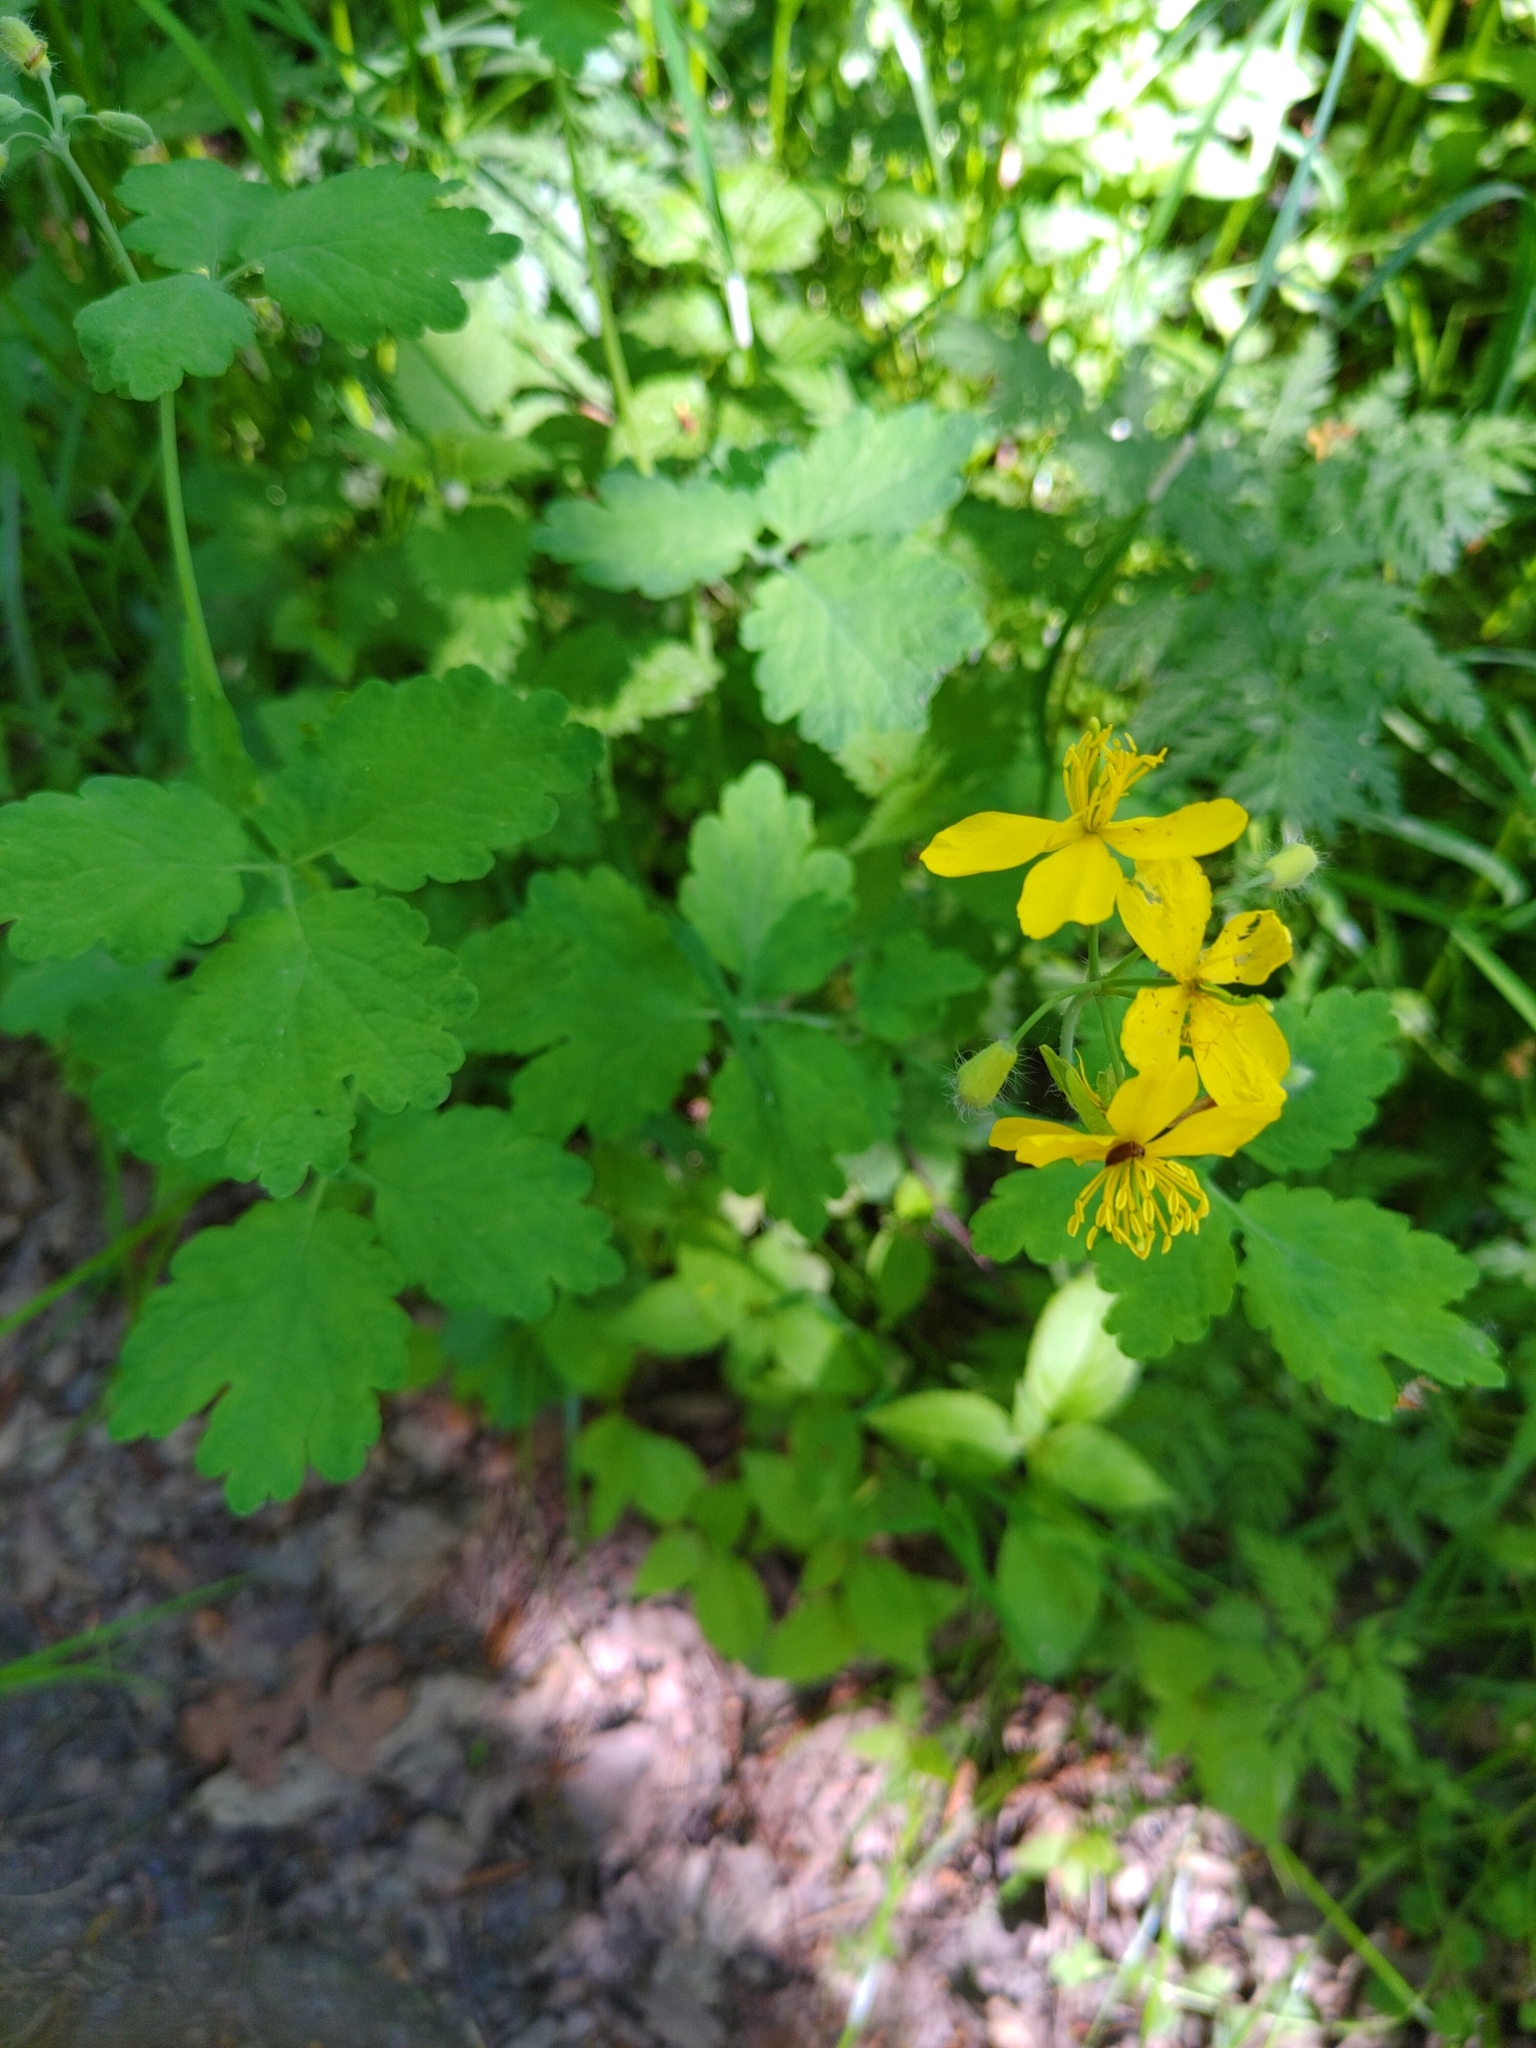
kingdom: Plantae
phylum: Tracheophyta
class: Magnoliopsida
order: Ranunculales
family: Papaveraceae
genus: Chelidonium
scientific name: Chelidonium majus
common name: Greater celandine
